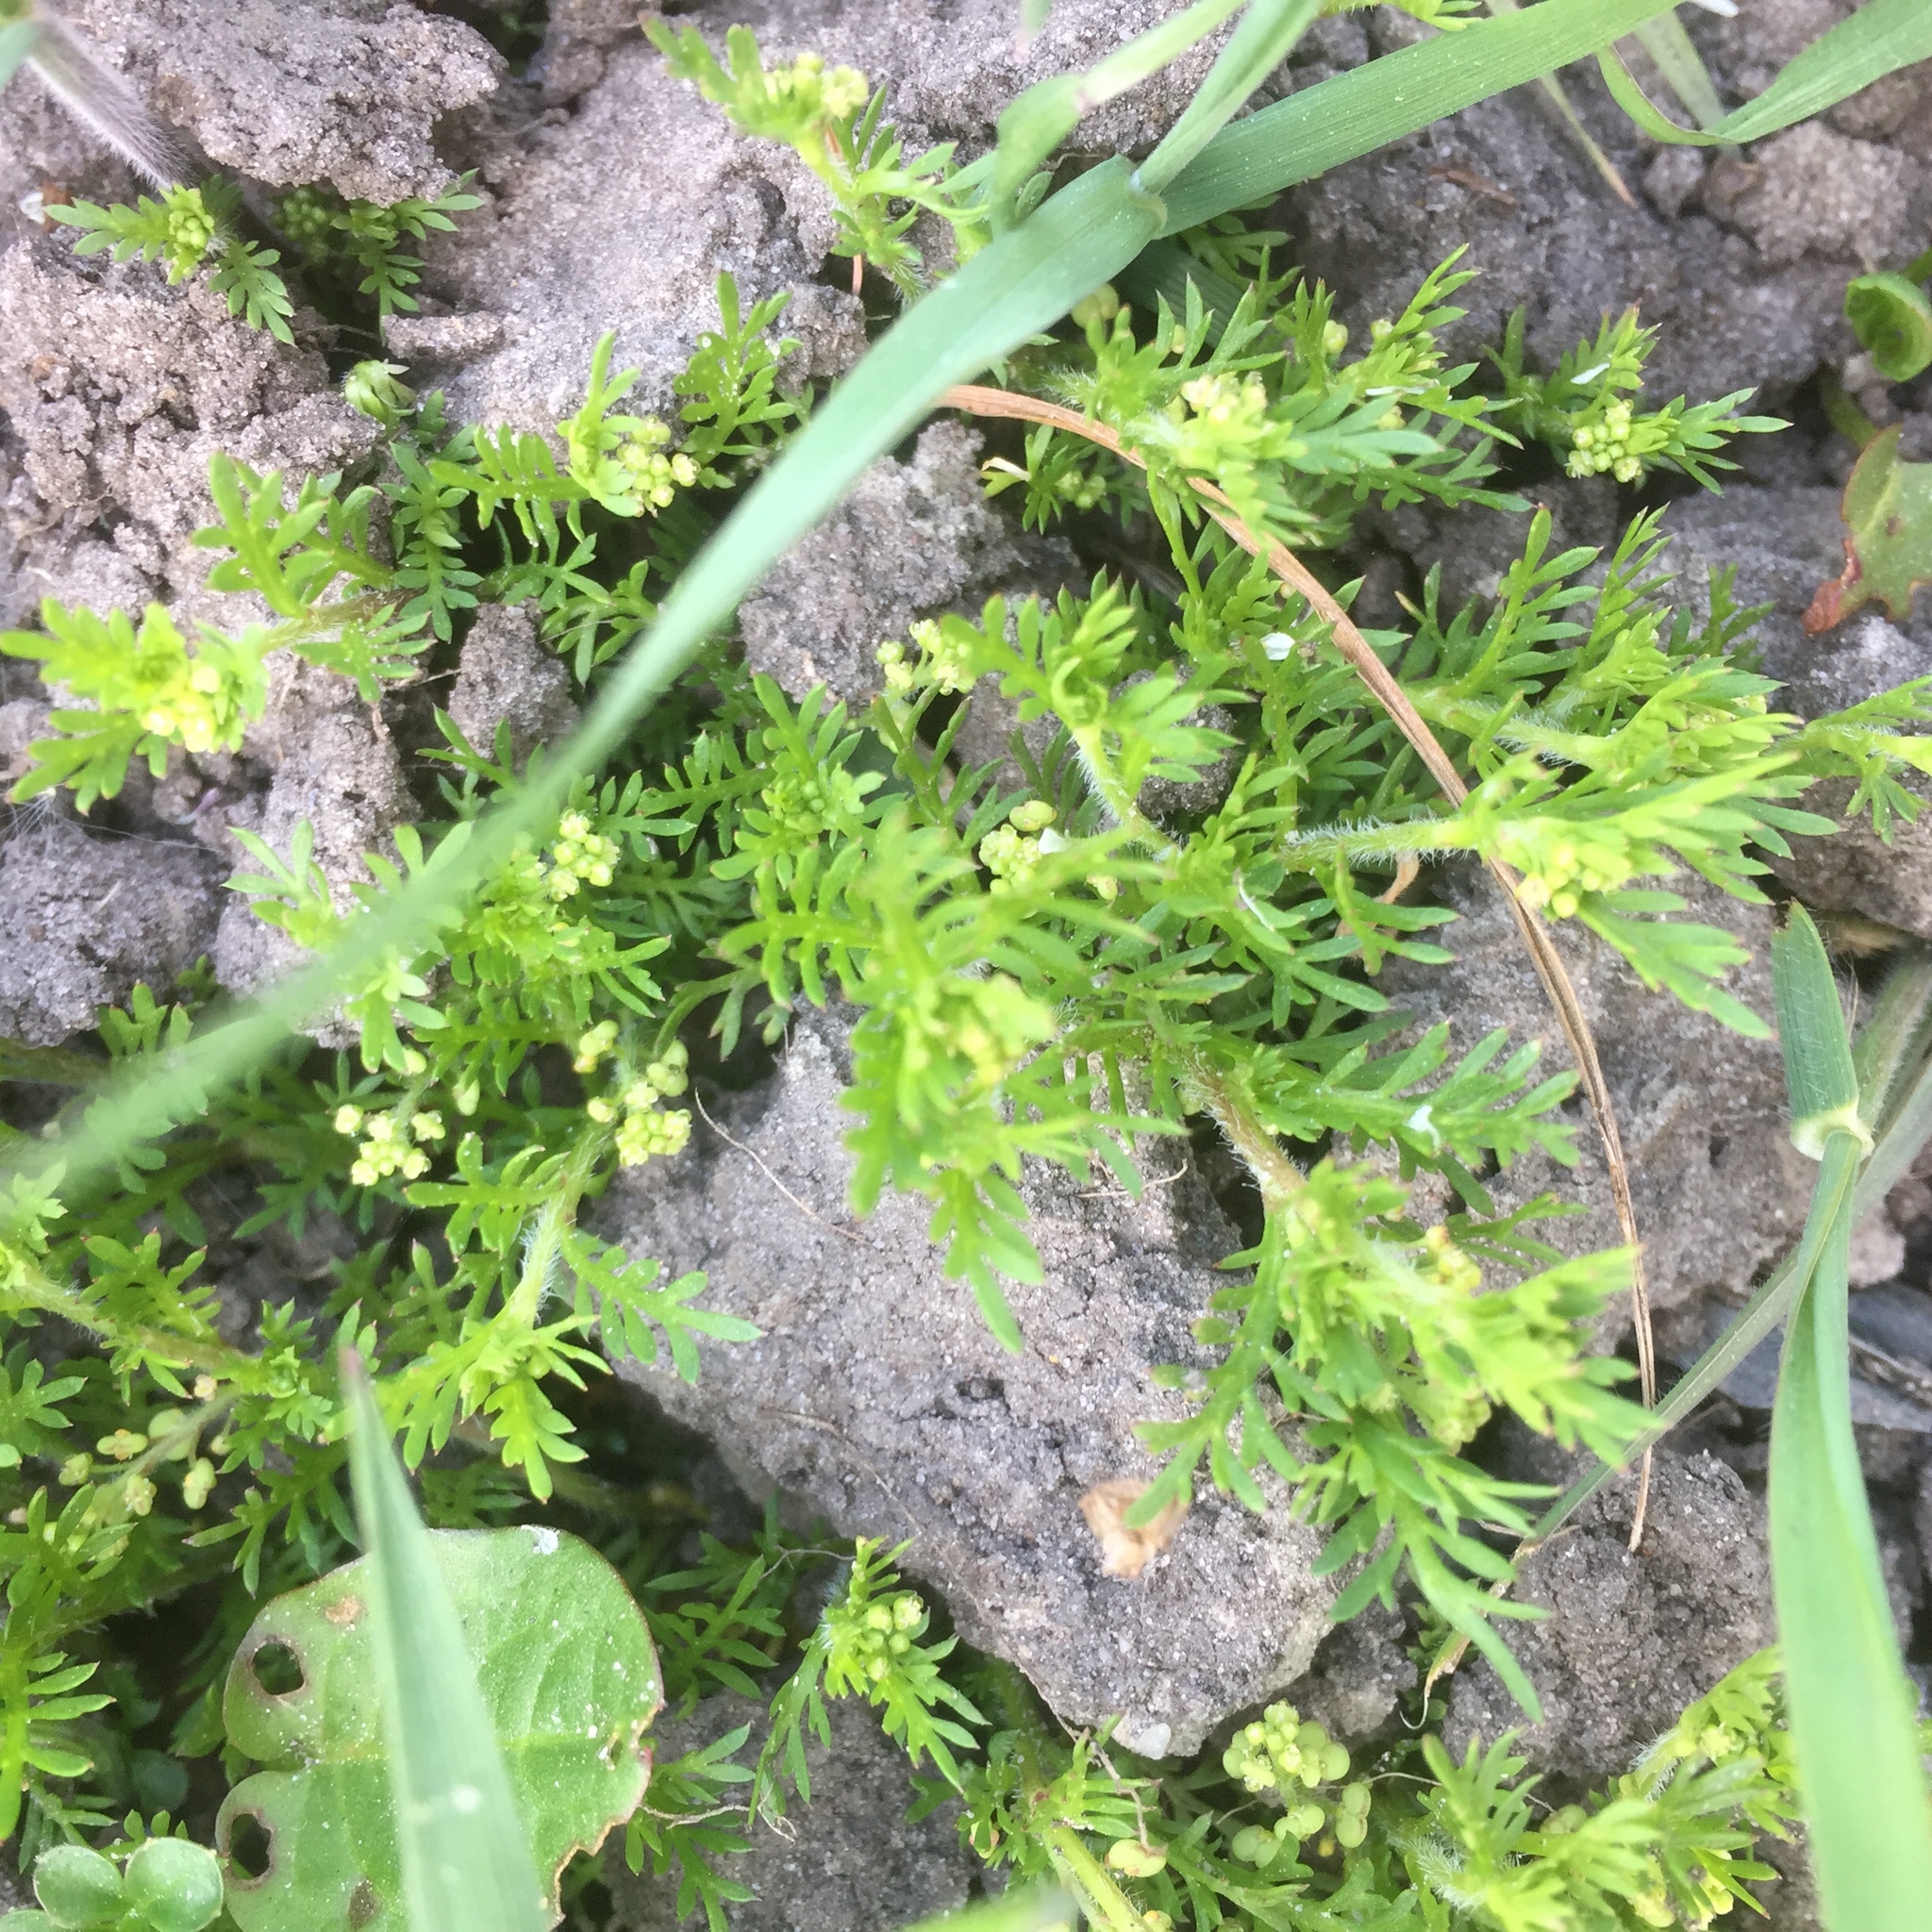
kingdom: Plantae
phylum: Tracheophyta
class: Magnoliopsida
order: Brassicales
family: Brassicaceae
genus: Lepidium
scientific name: Lepidium didymum
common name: Lesser swinecress
